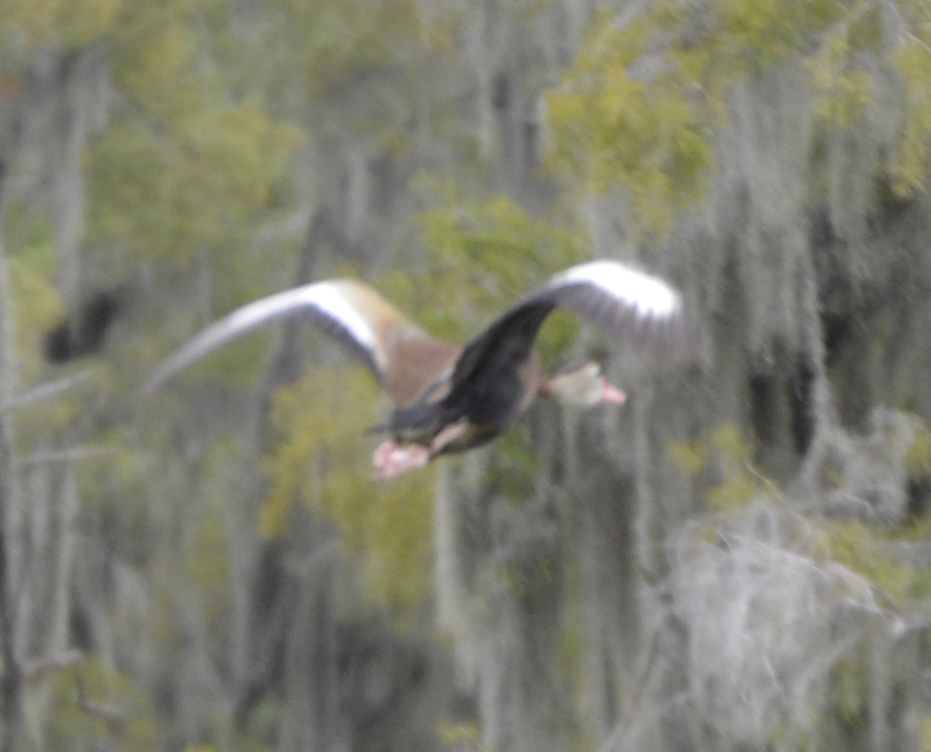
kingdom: Animalia
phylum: Chordata
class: Aves
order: Anseriformes
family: Anatidae
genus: Dendrocygna
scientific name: Dendrocygna autumnalis
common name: Black-bellied whistling duck
